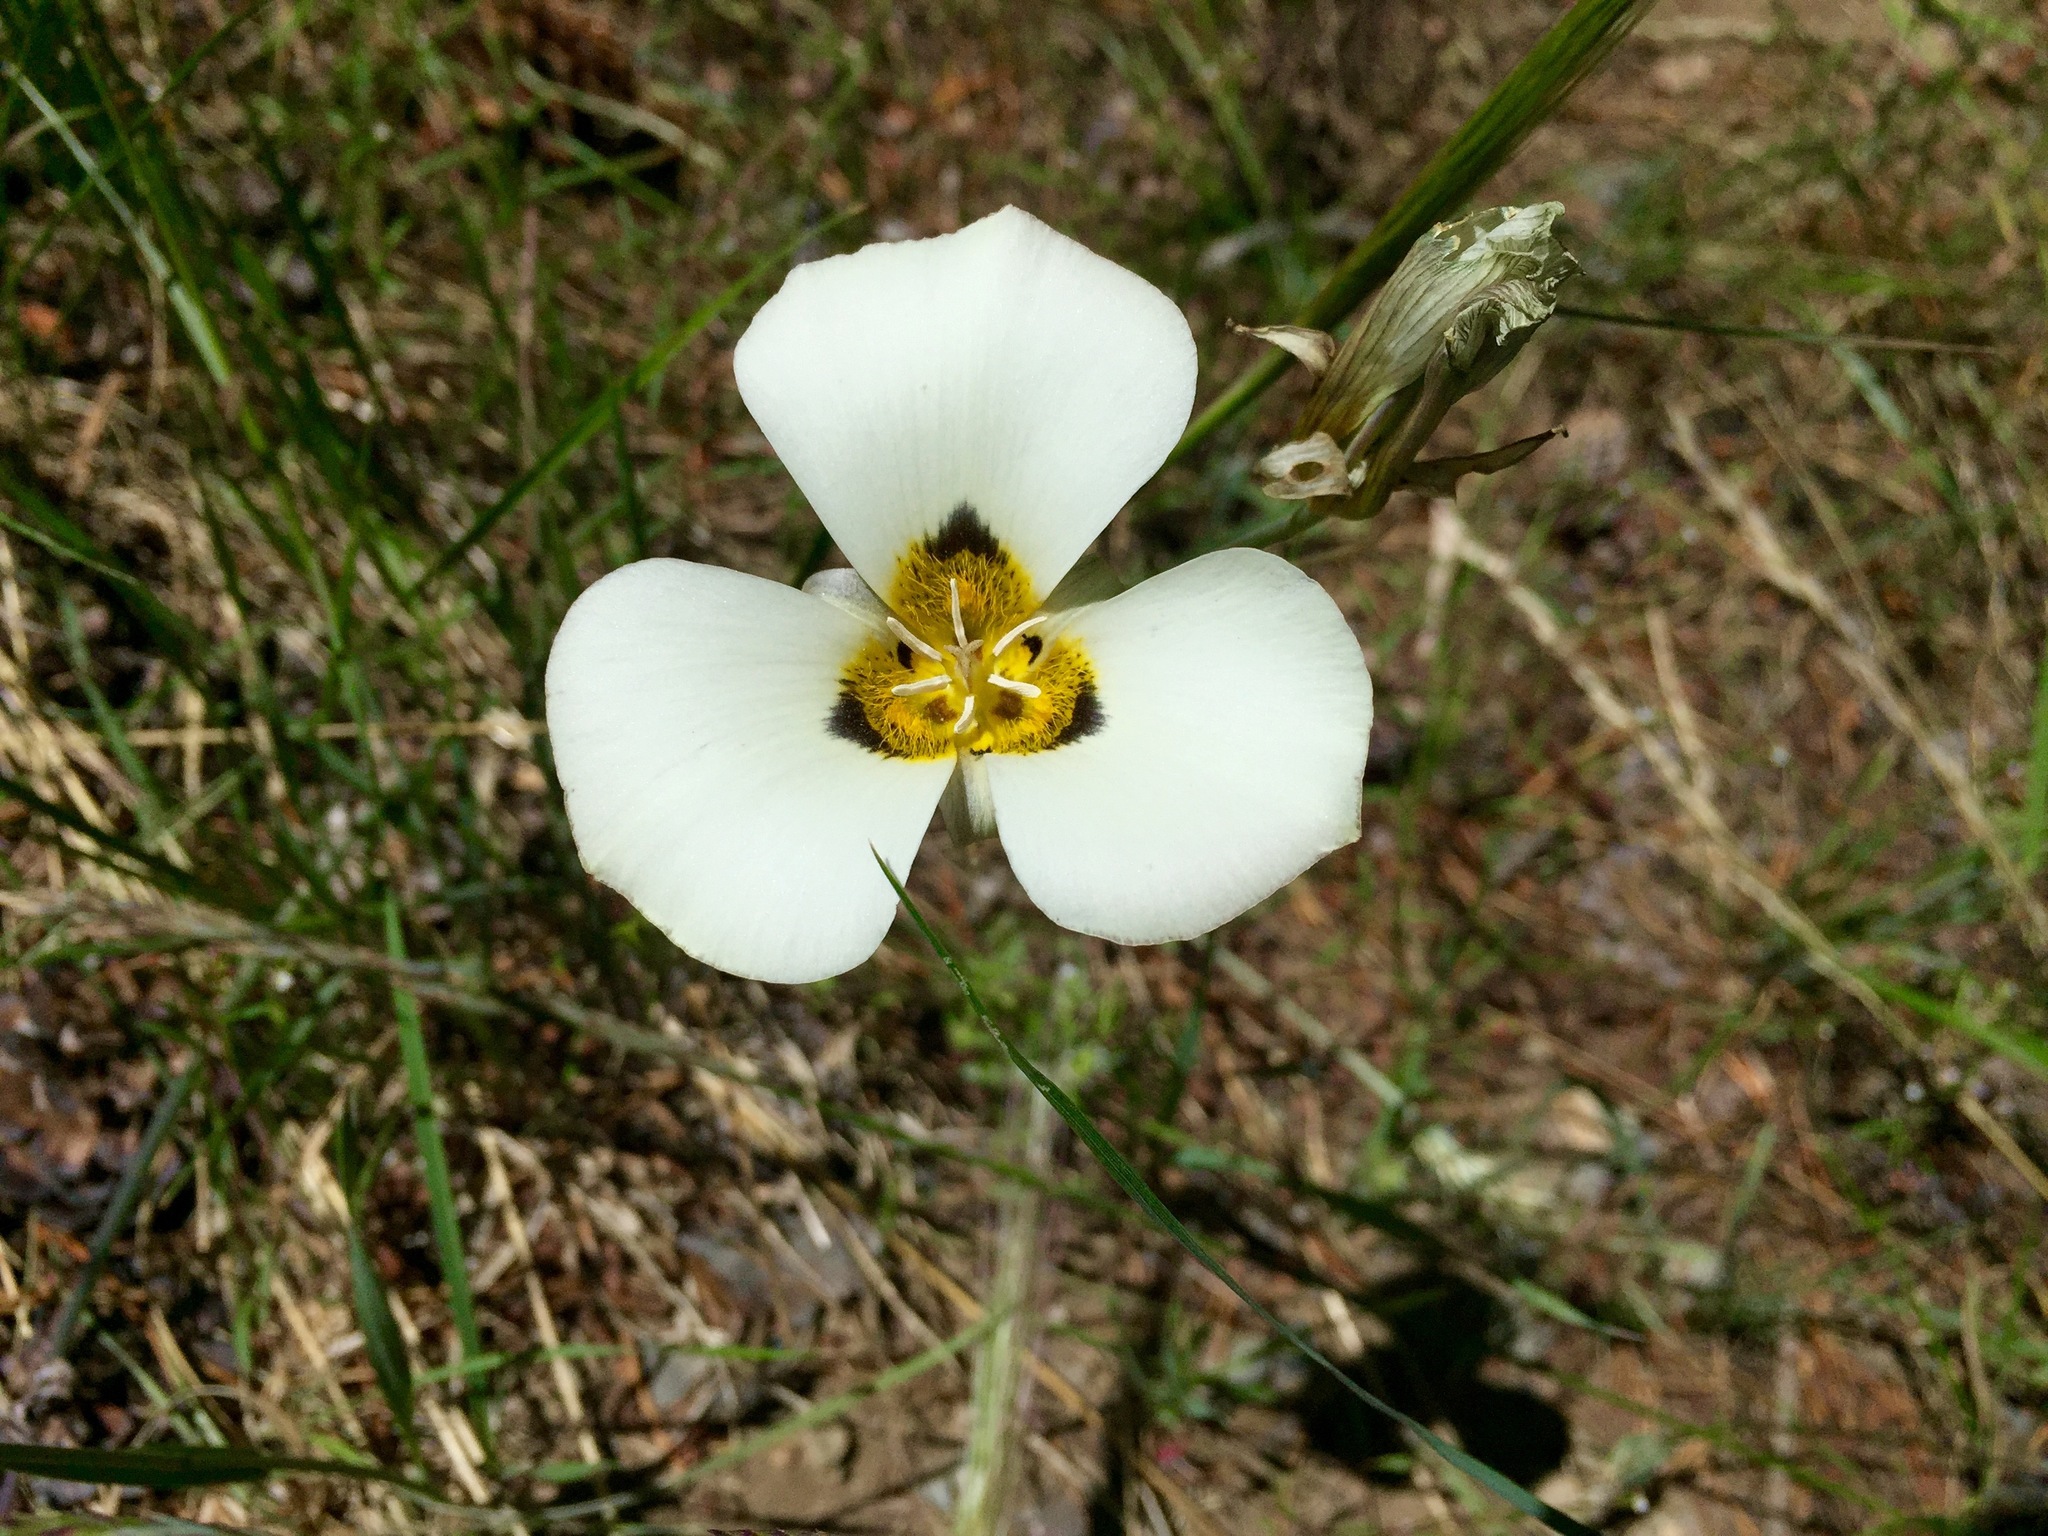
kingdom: Plantae
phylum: Tracheophyta
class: Liliopsida
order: Liliales
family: Liliaceae
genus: Calochortus
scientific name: Calochortus leichtlinii
